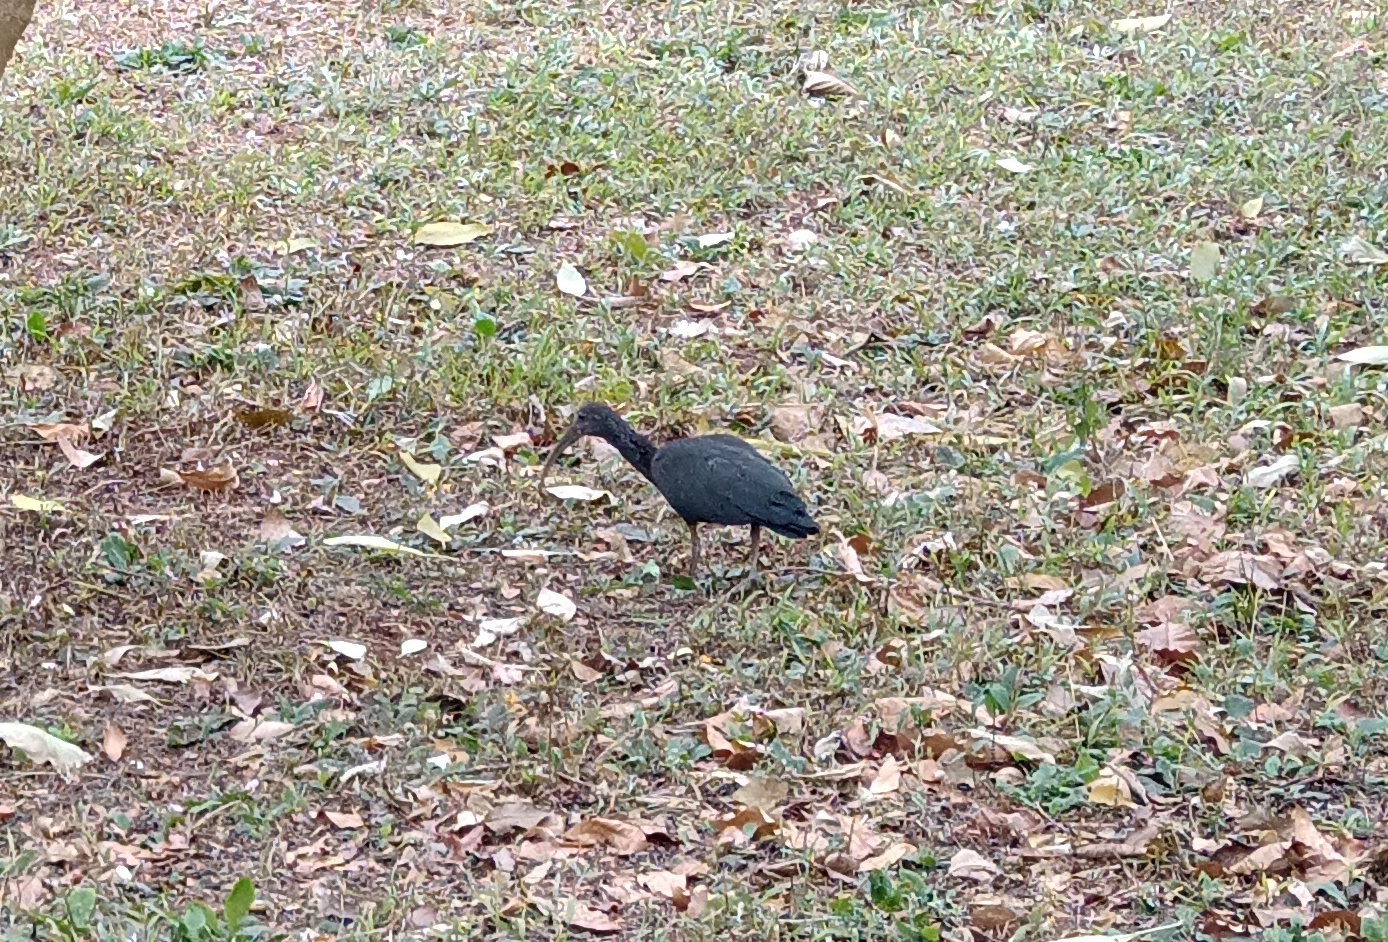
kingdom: Animalia
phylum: Chordata
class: Aves
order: Pelecaniformes
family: Threskiornithidae
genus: Mesembrinibis
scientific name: Mesembrinibis cayennensis
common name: Green ibis
